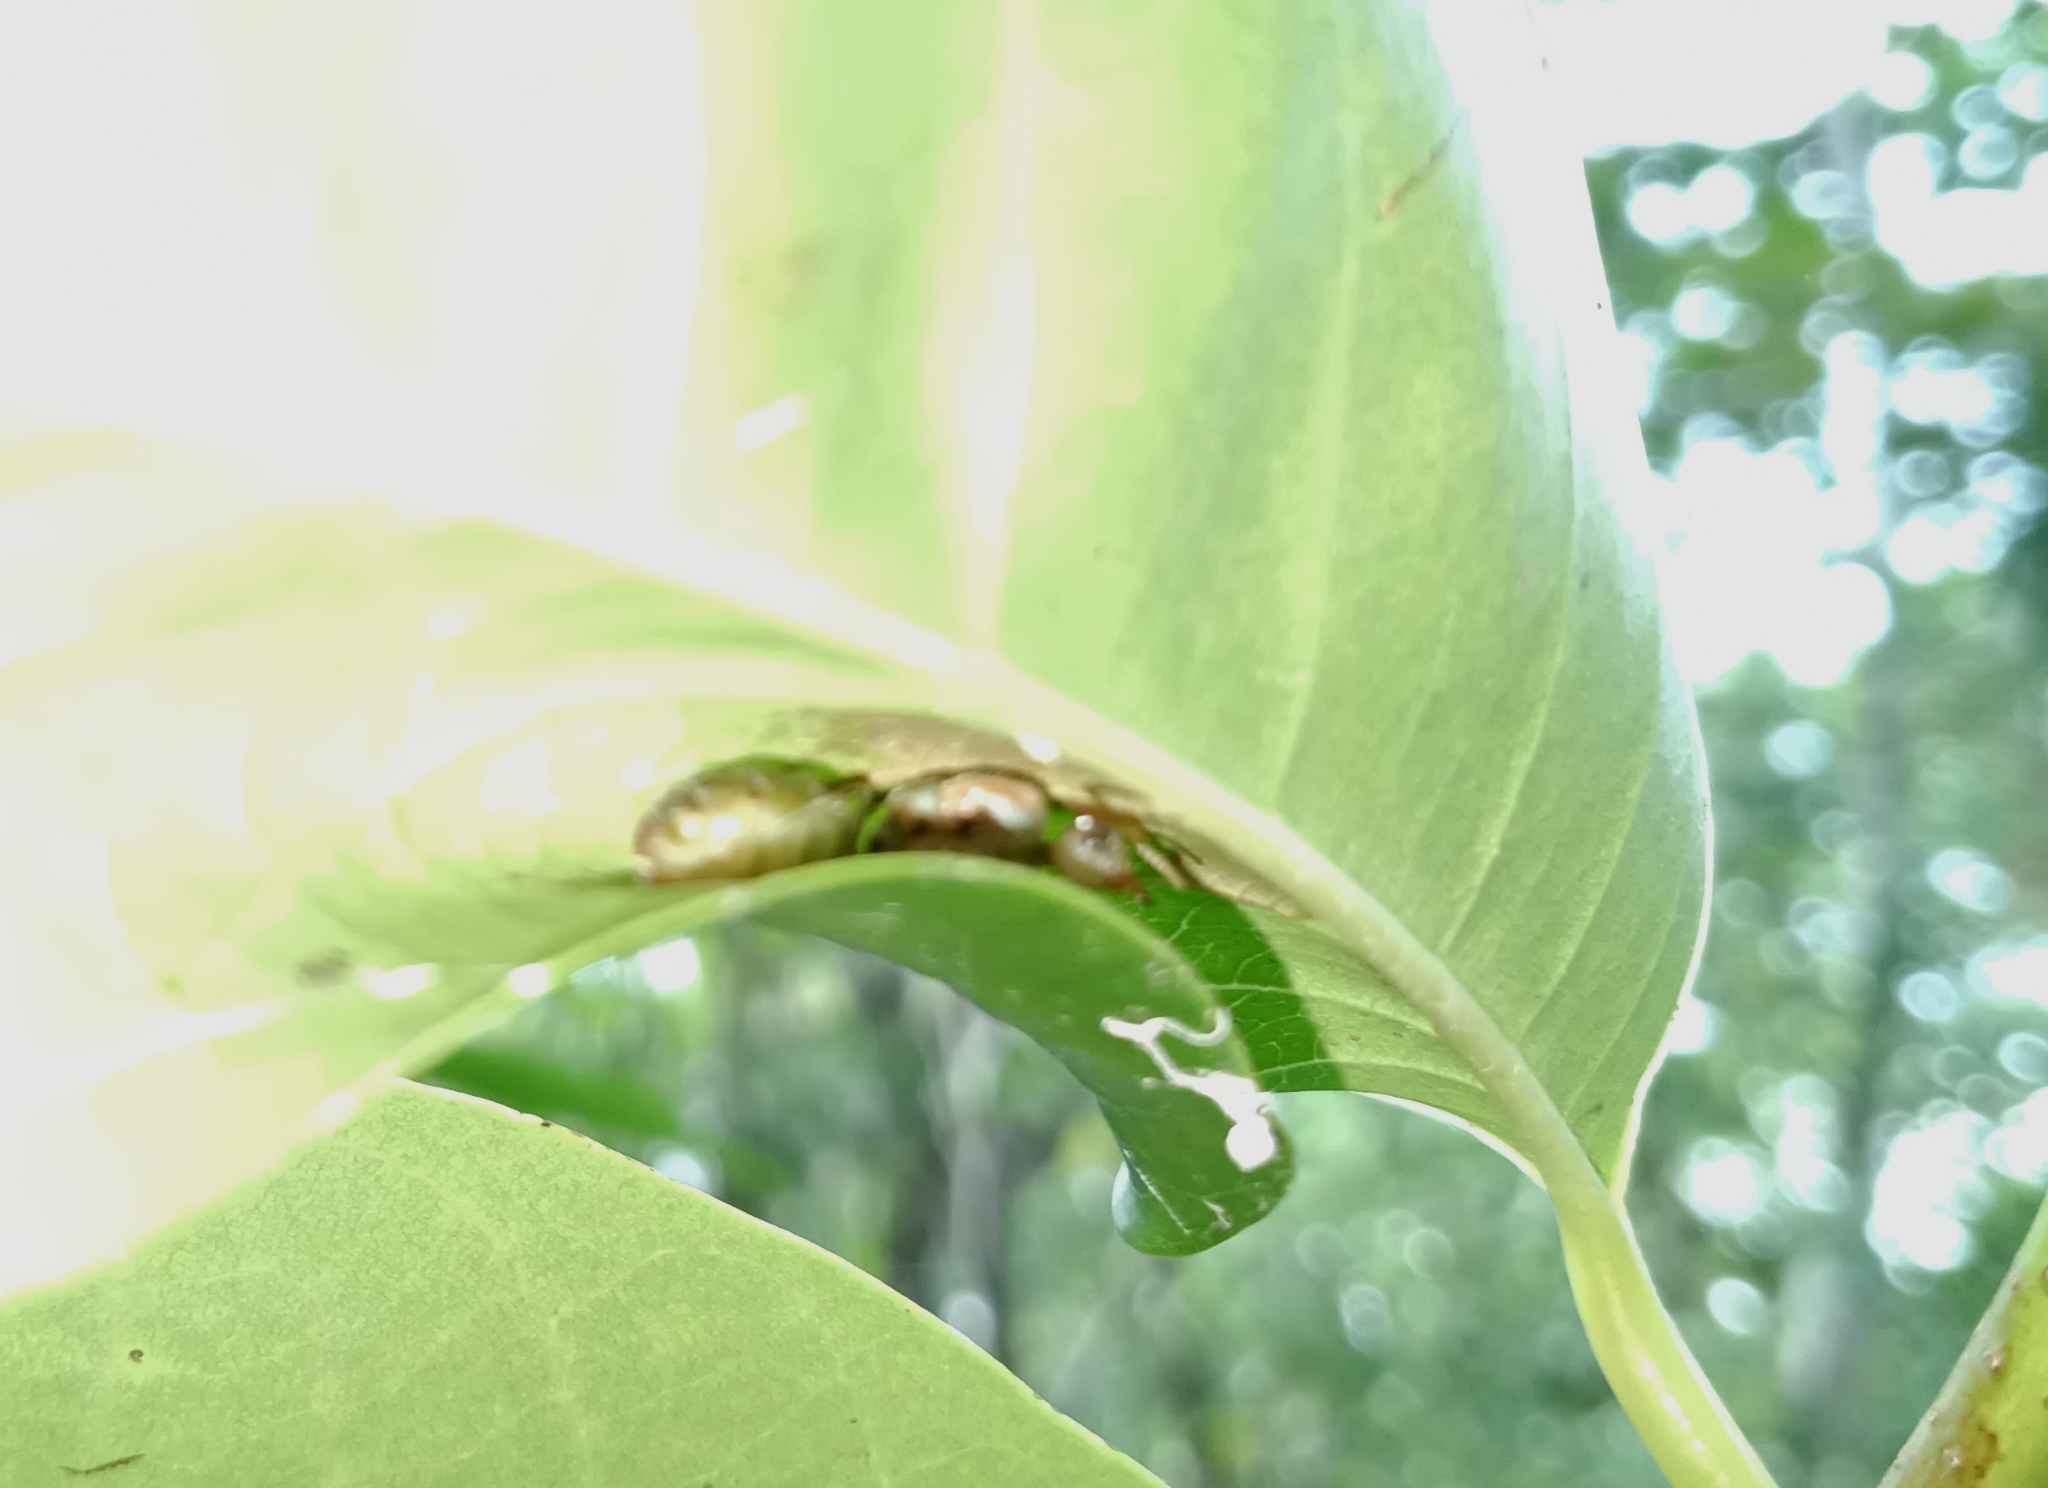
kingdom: Animalia
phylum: Arthropoda
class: Insecta
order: Hymenoptera
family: Formicidae
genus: Oecophylla
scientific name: Oecophylla smaragdina
